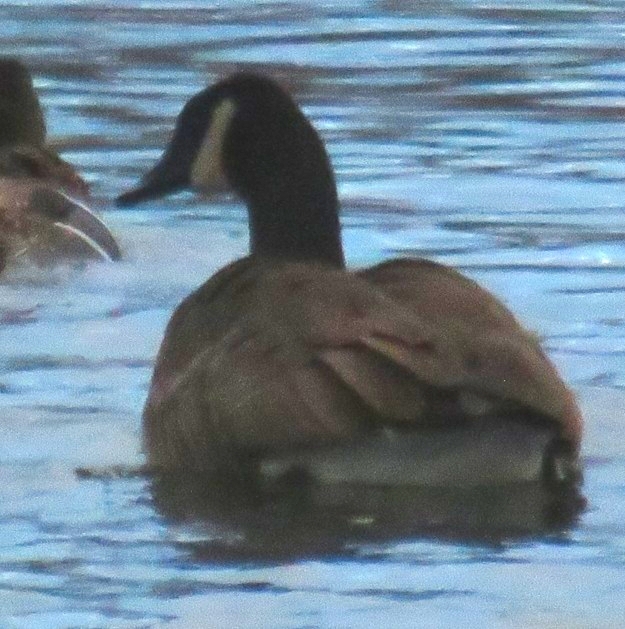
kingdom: Animalia
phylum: Chordata
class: Aves
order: Anseriformes
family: Anatidae
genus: Branta
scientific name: Branta canadensis
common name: Canada goose
